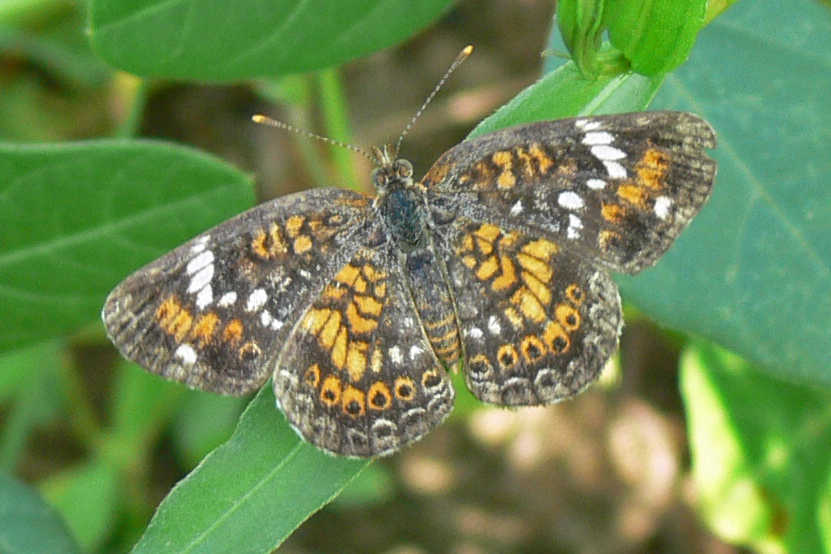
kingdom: Animalia
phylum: Arthropoda
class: Insecta
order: Lepidoptera
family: Nymphalidae
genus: Phyciodes
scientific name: Phyciodes phaon
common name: Phaon crescent
